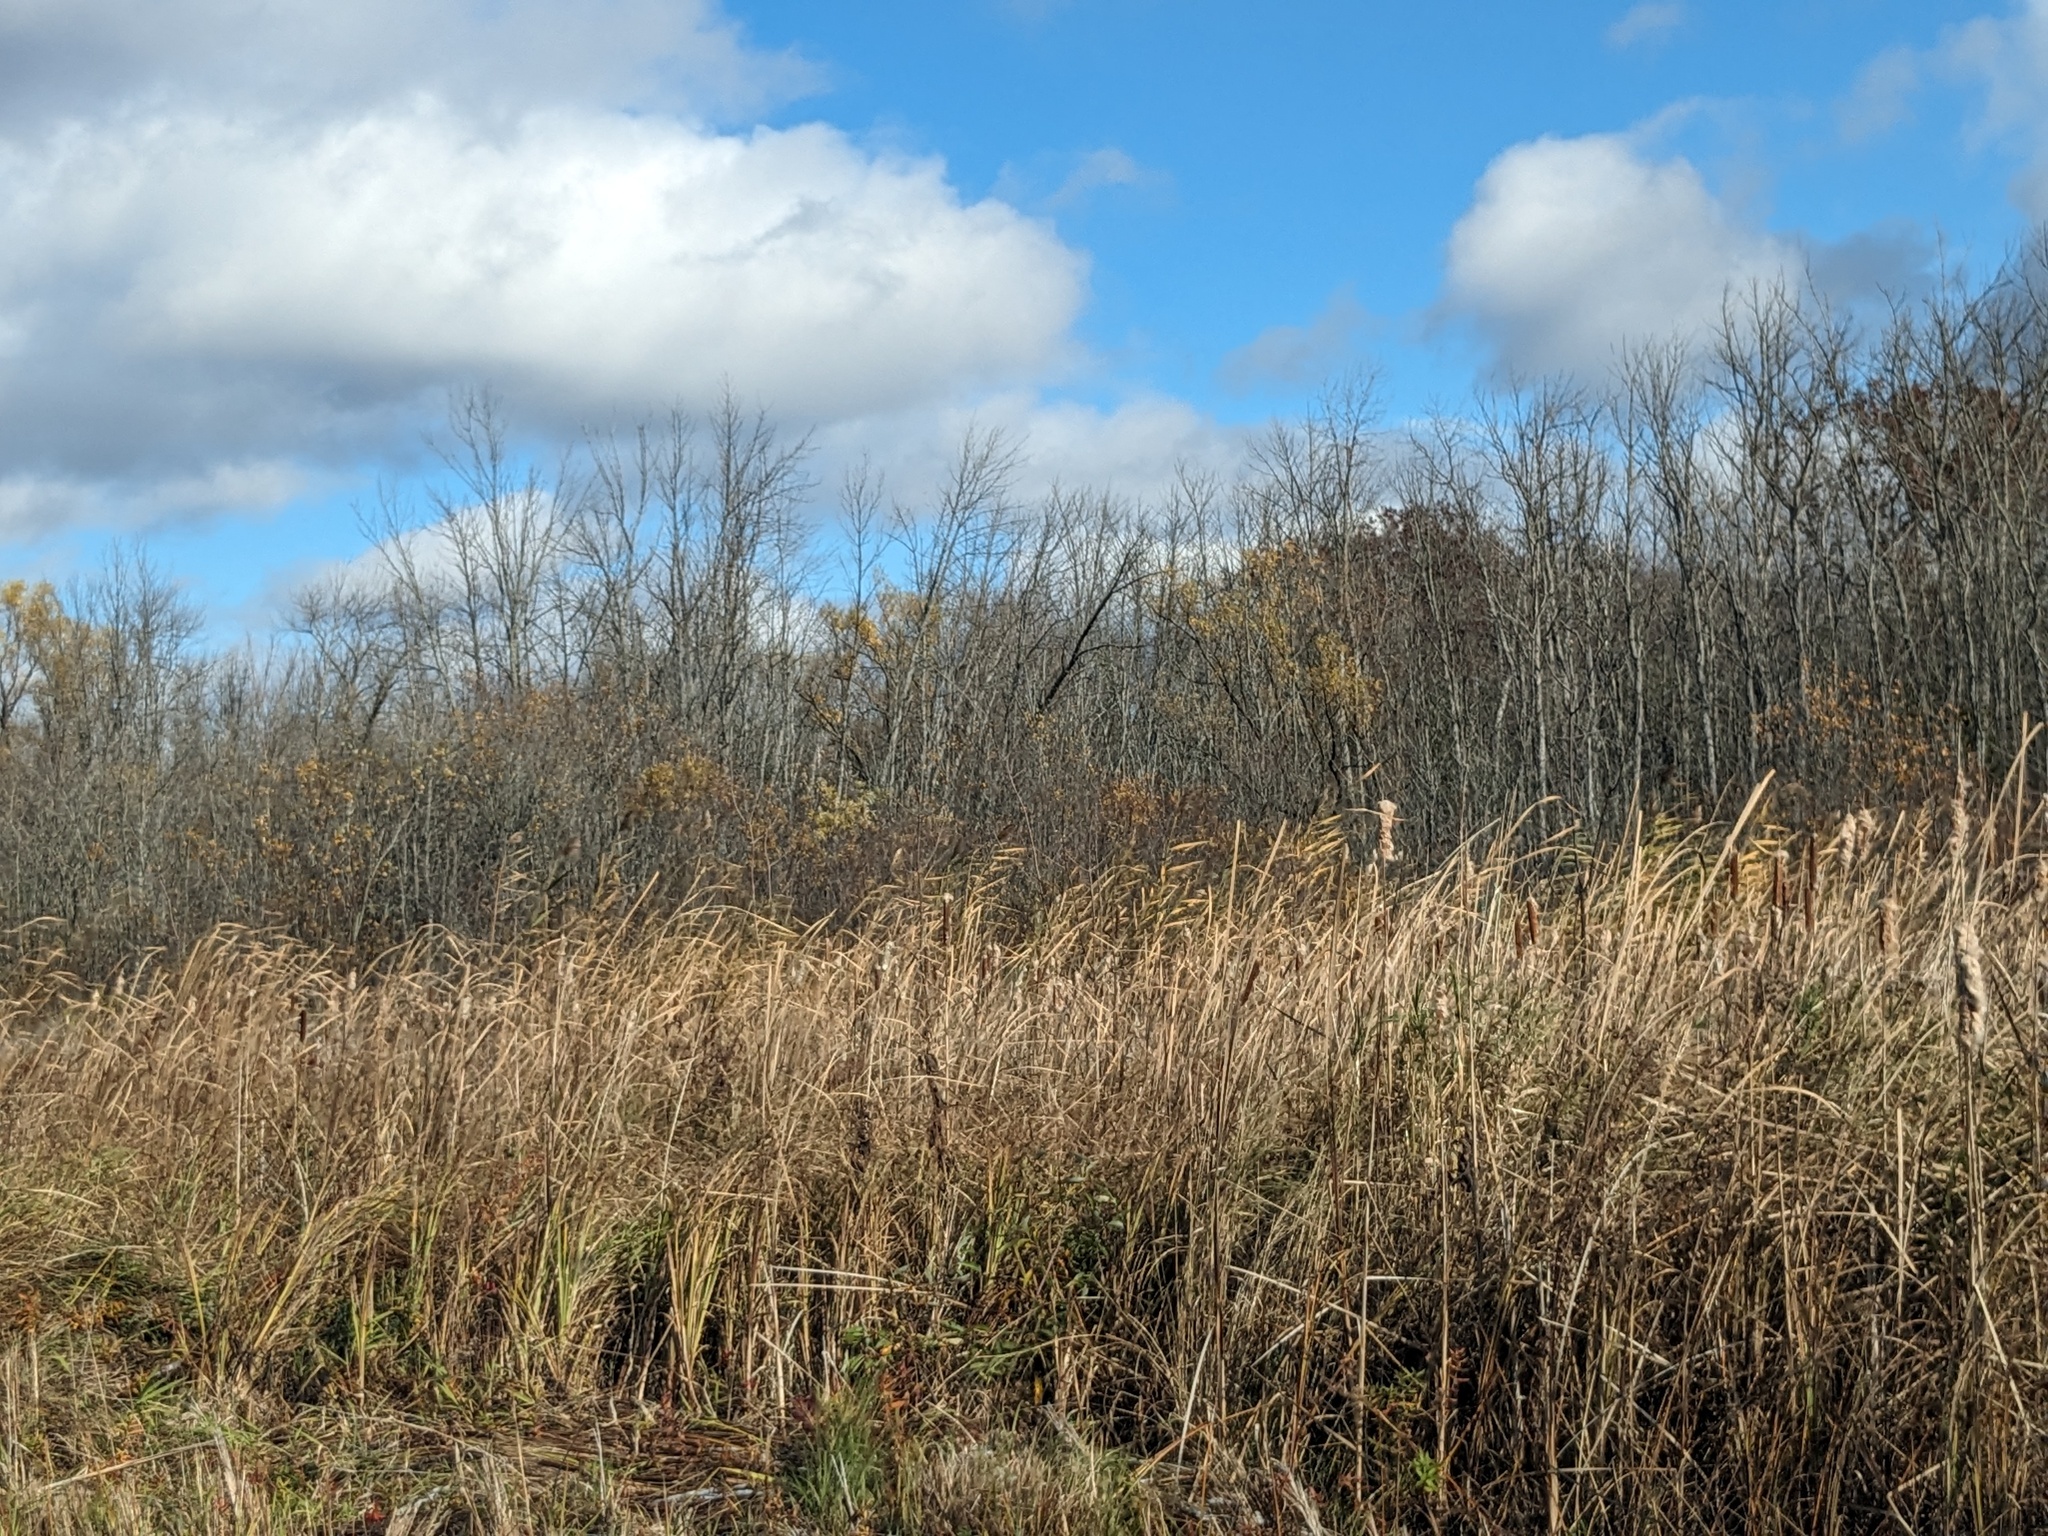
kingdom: Plantae
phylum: Tracheophyta
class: Liliopsida
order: Poales
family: Poaceae
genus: Phragmites
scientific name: Phragmites australis
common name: Common reed
